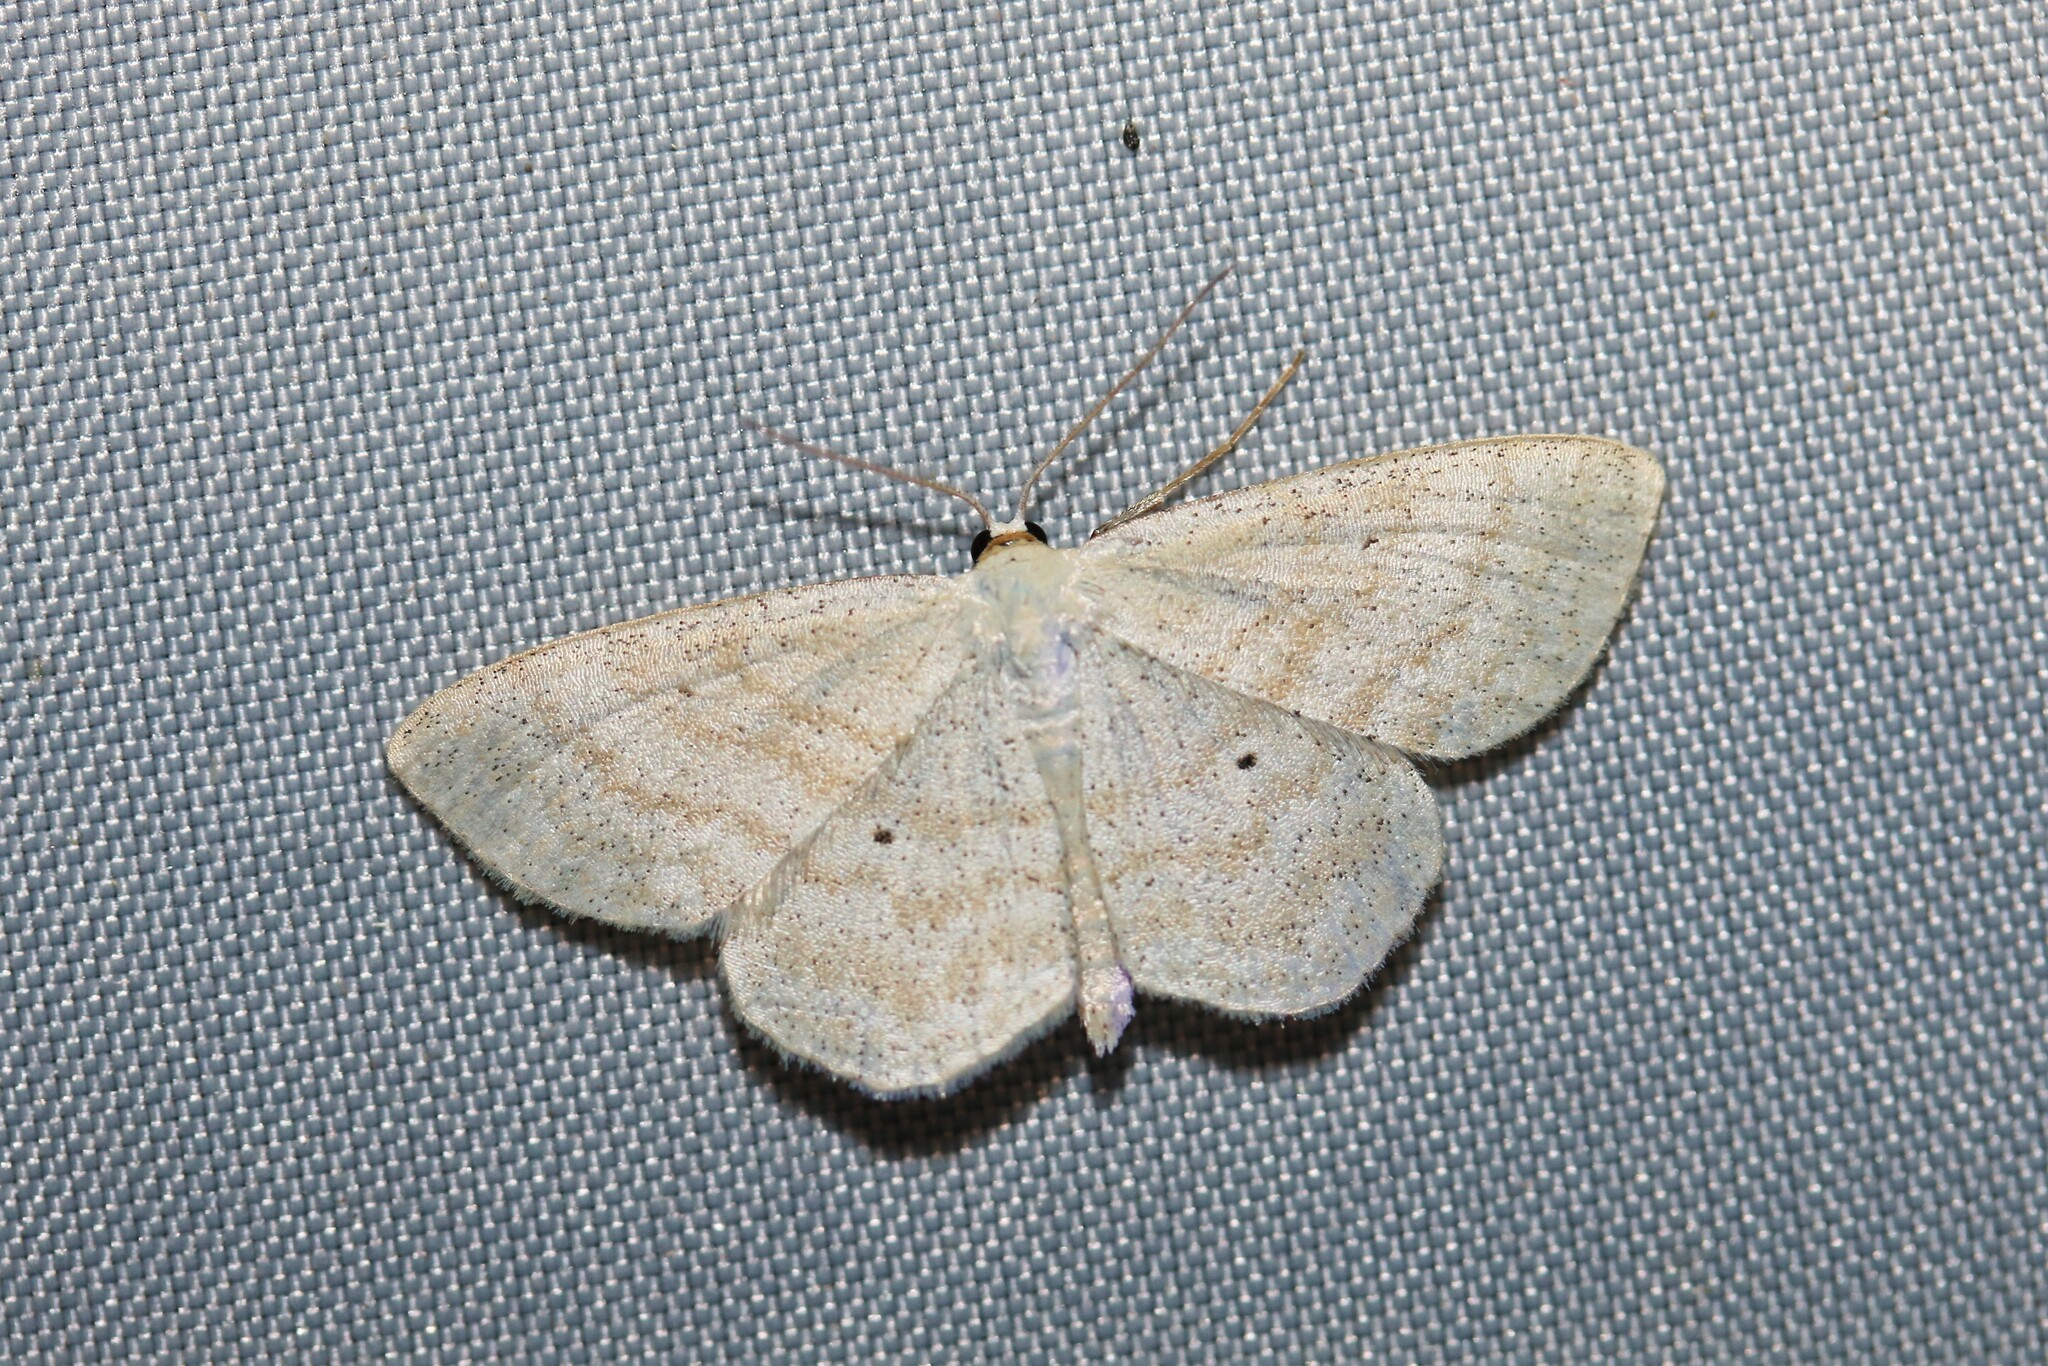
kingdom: Animalia
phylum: Arthropoda
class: Insecta
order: Lepidoptera
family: Geometridae
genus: Scopula
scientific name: Scopula immutata
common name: Lesser cream wave
